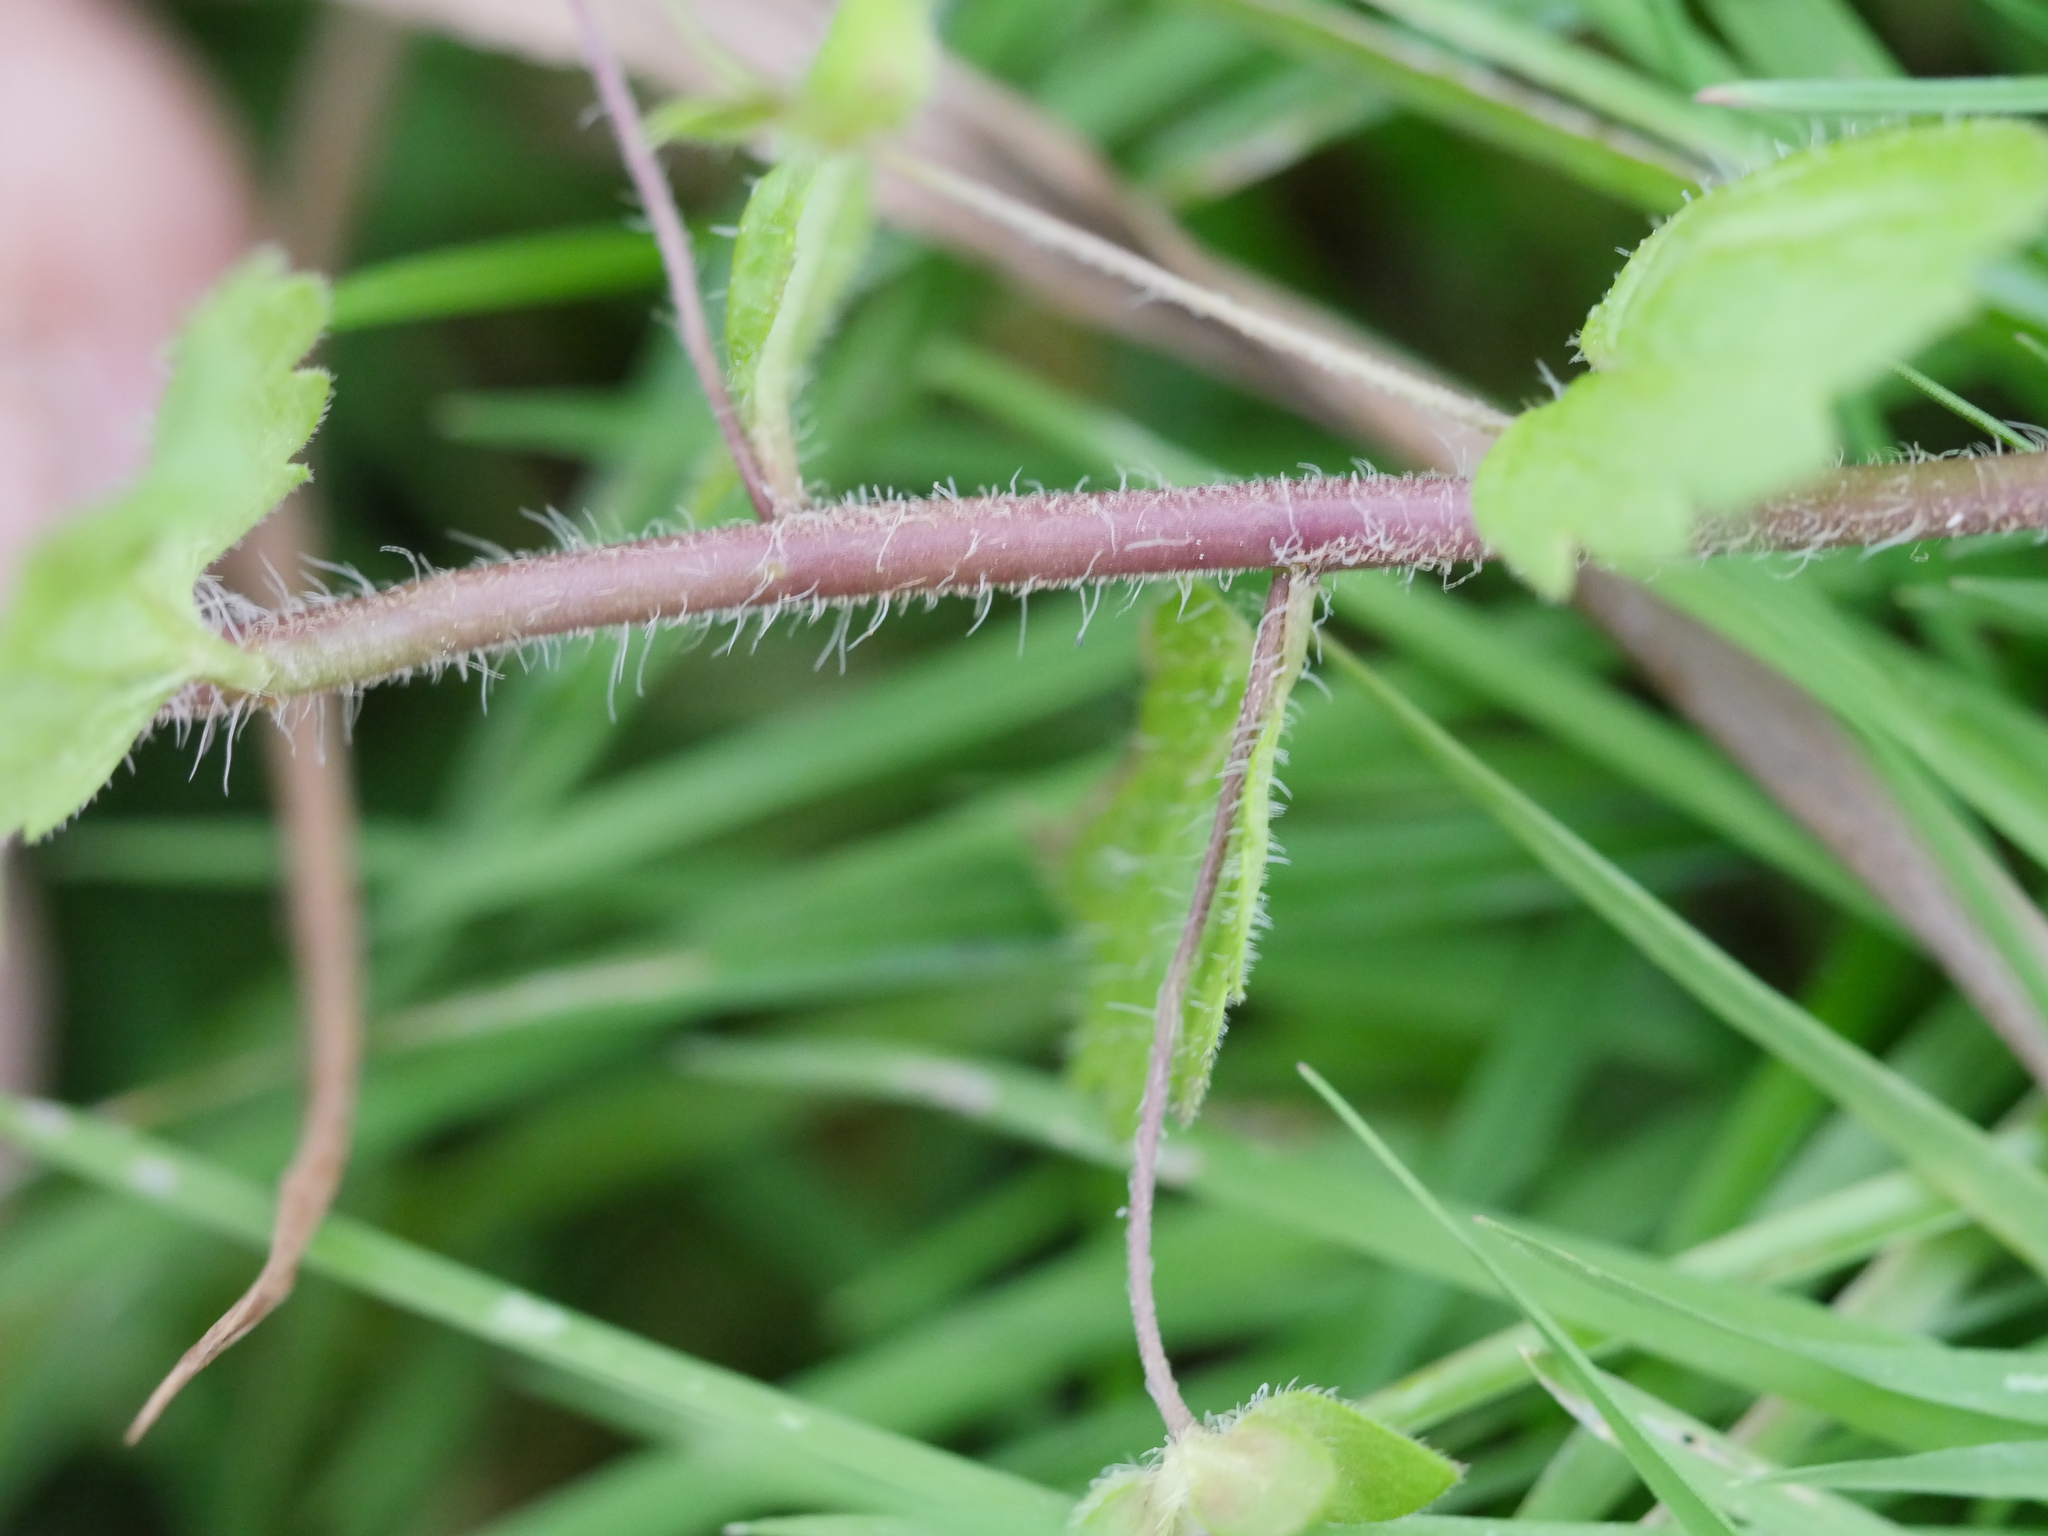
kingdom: Plantae
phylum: Tracheophyta
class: Magnoliopsida
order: Lamiales
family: Plantaginaceae
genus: Veronica
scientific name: Veronica persica
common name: Common field-speedwell
